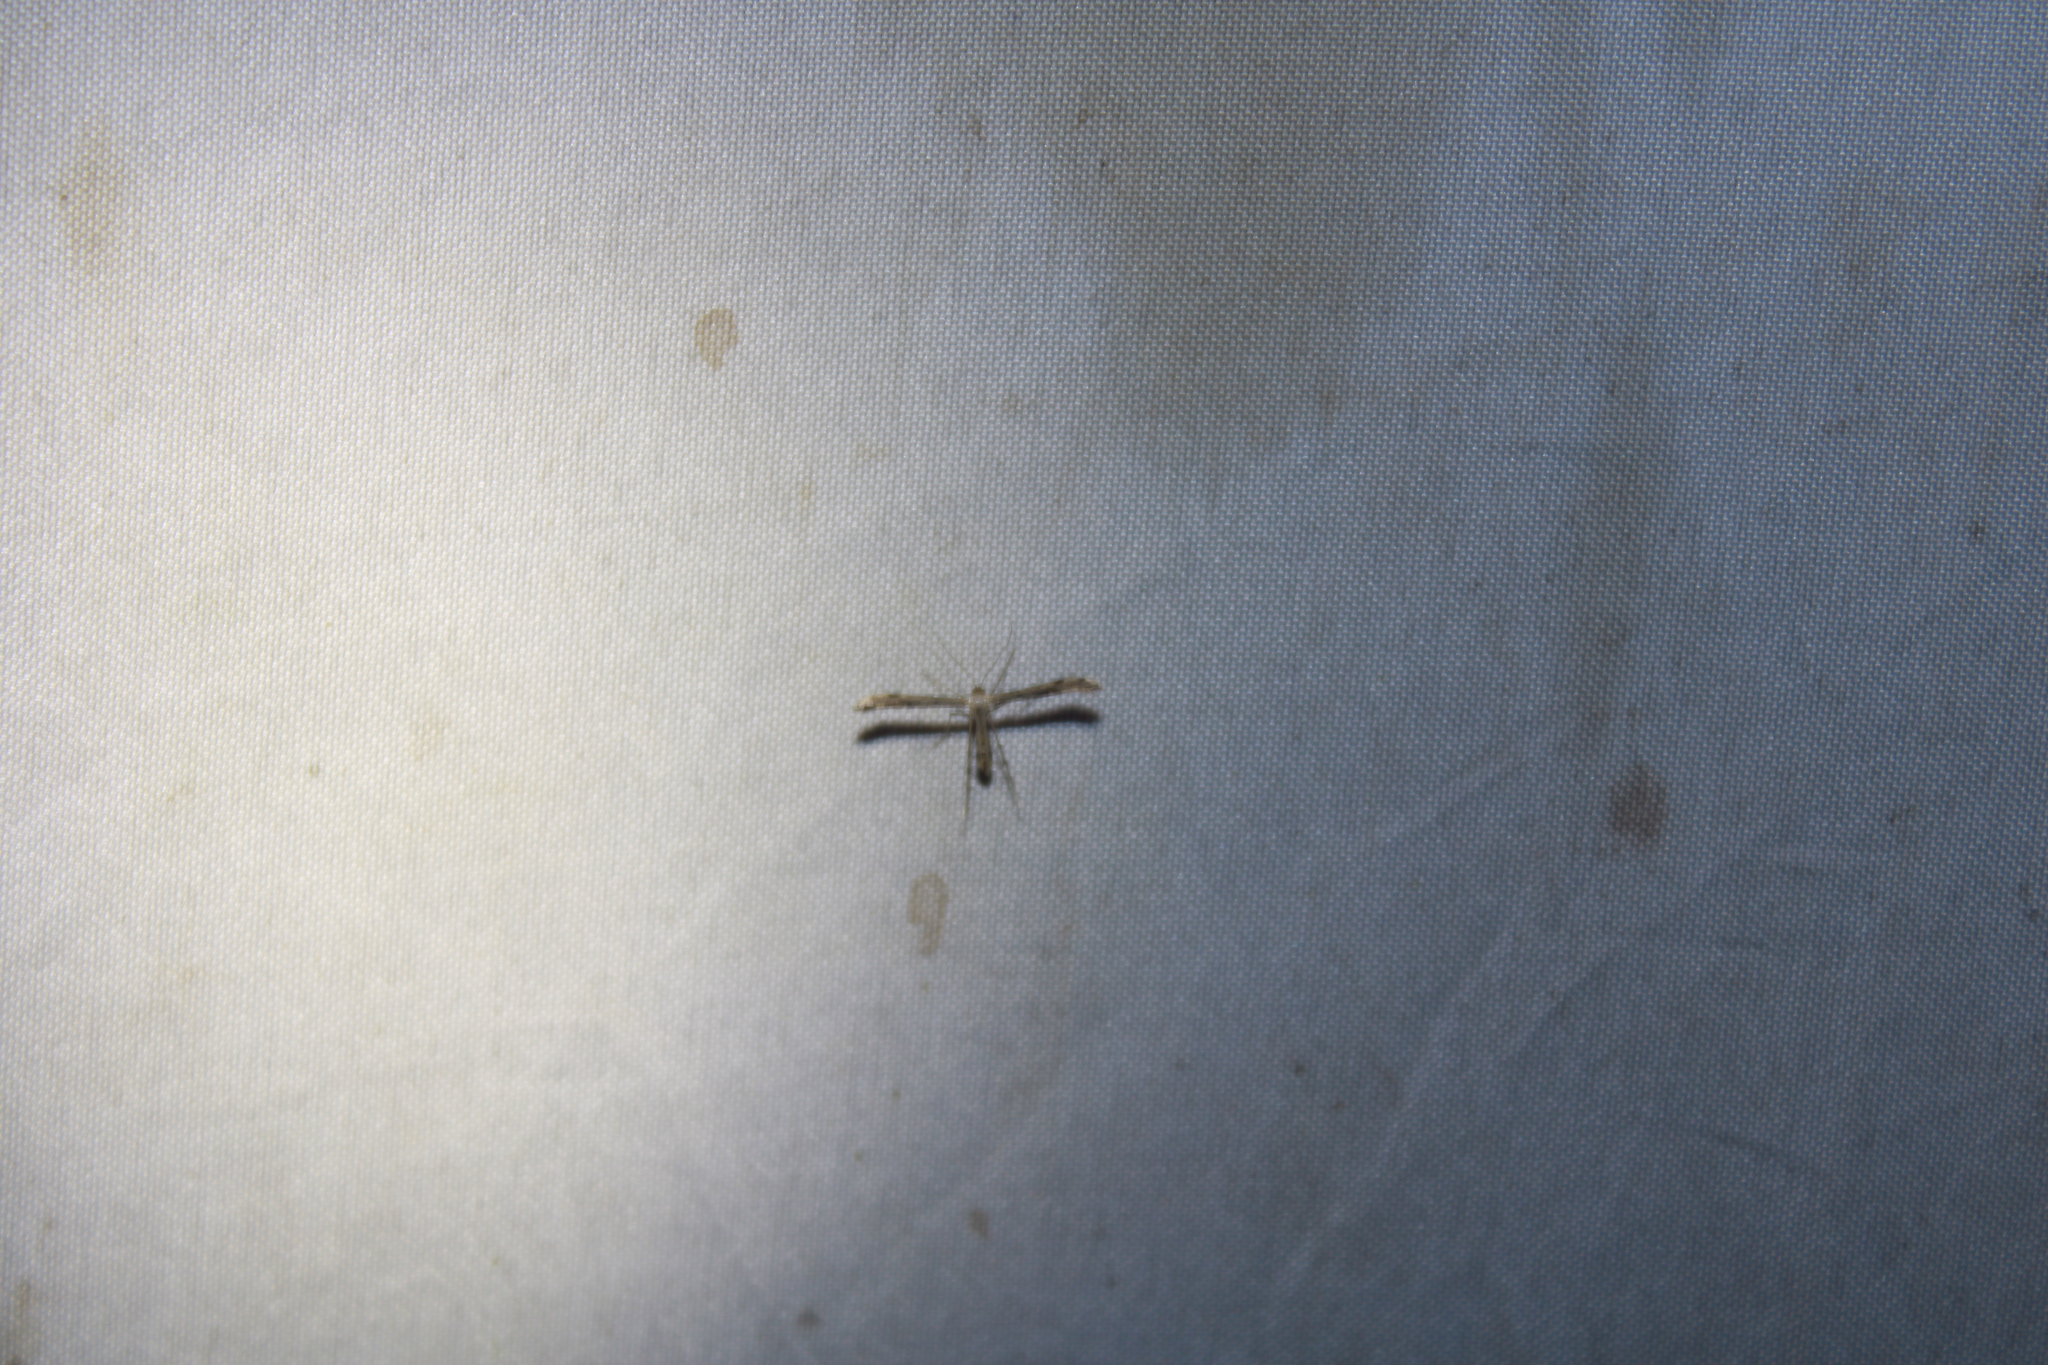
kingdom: Animalia
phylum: Arthropoda
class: Insecta
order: Lepidoptera
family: Pterophoridae
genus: Adaina
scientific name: Adaina ambrosiae
